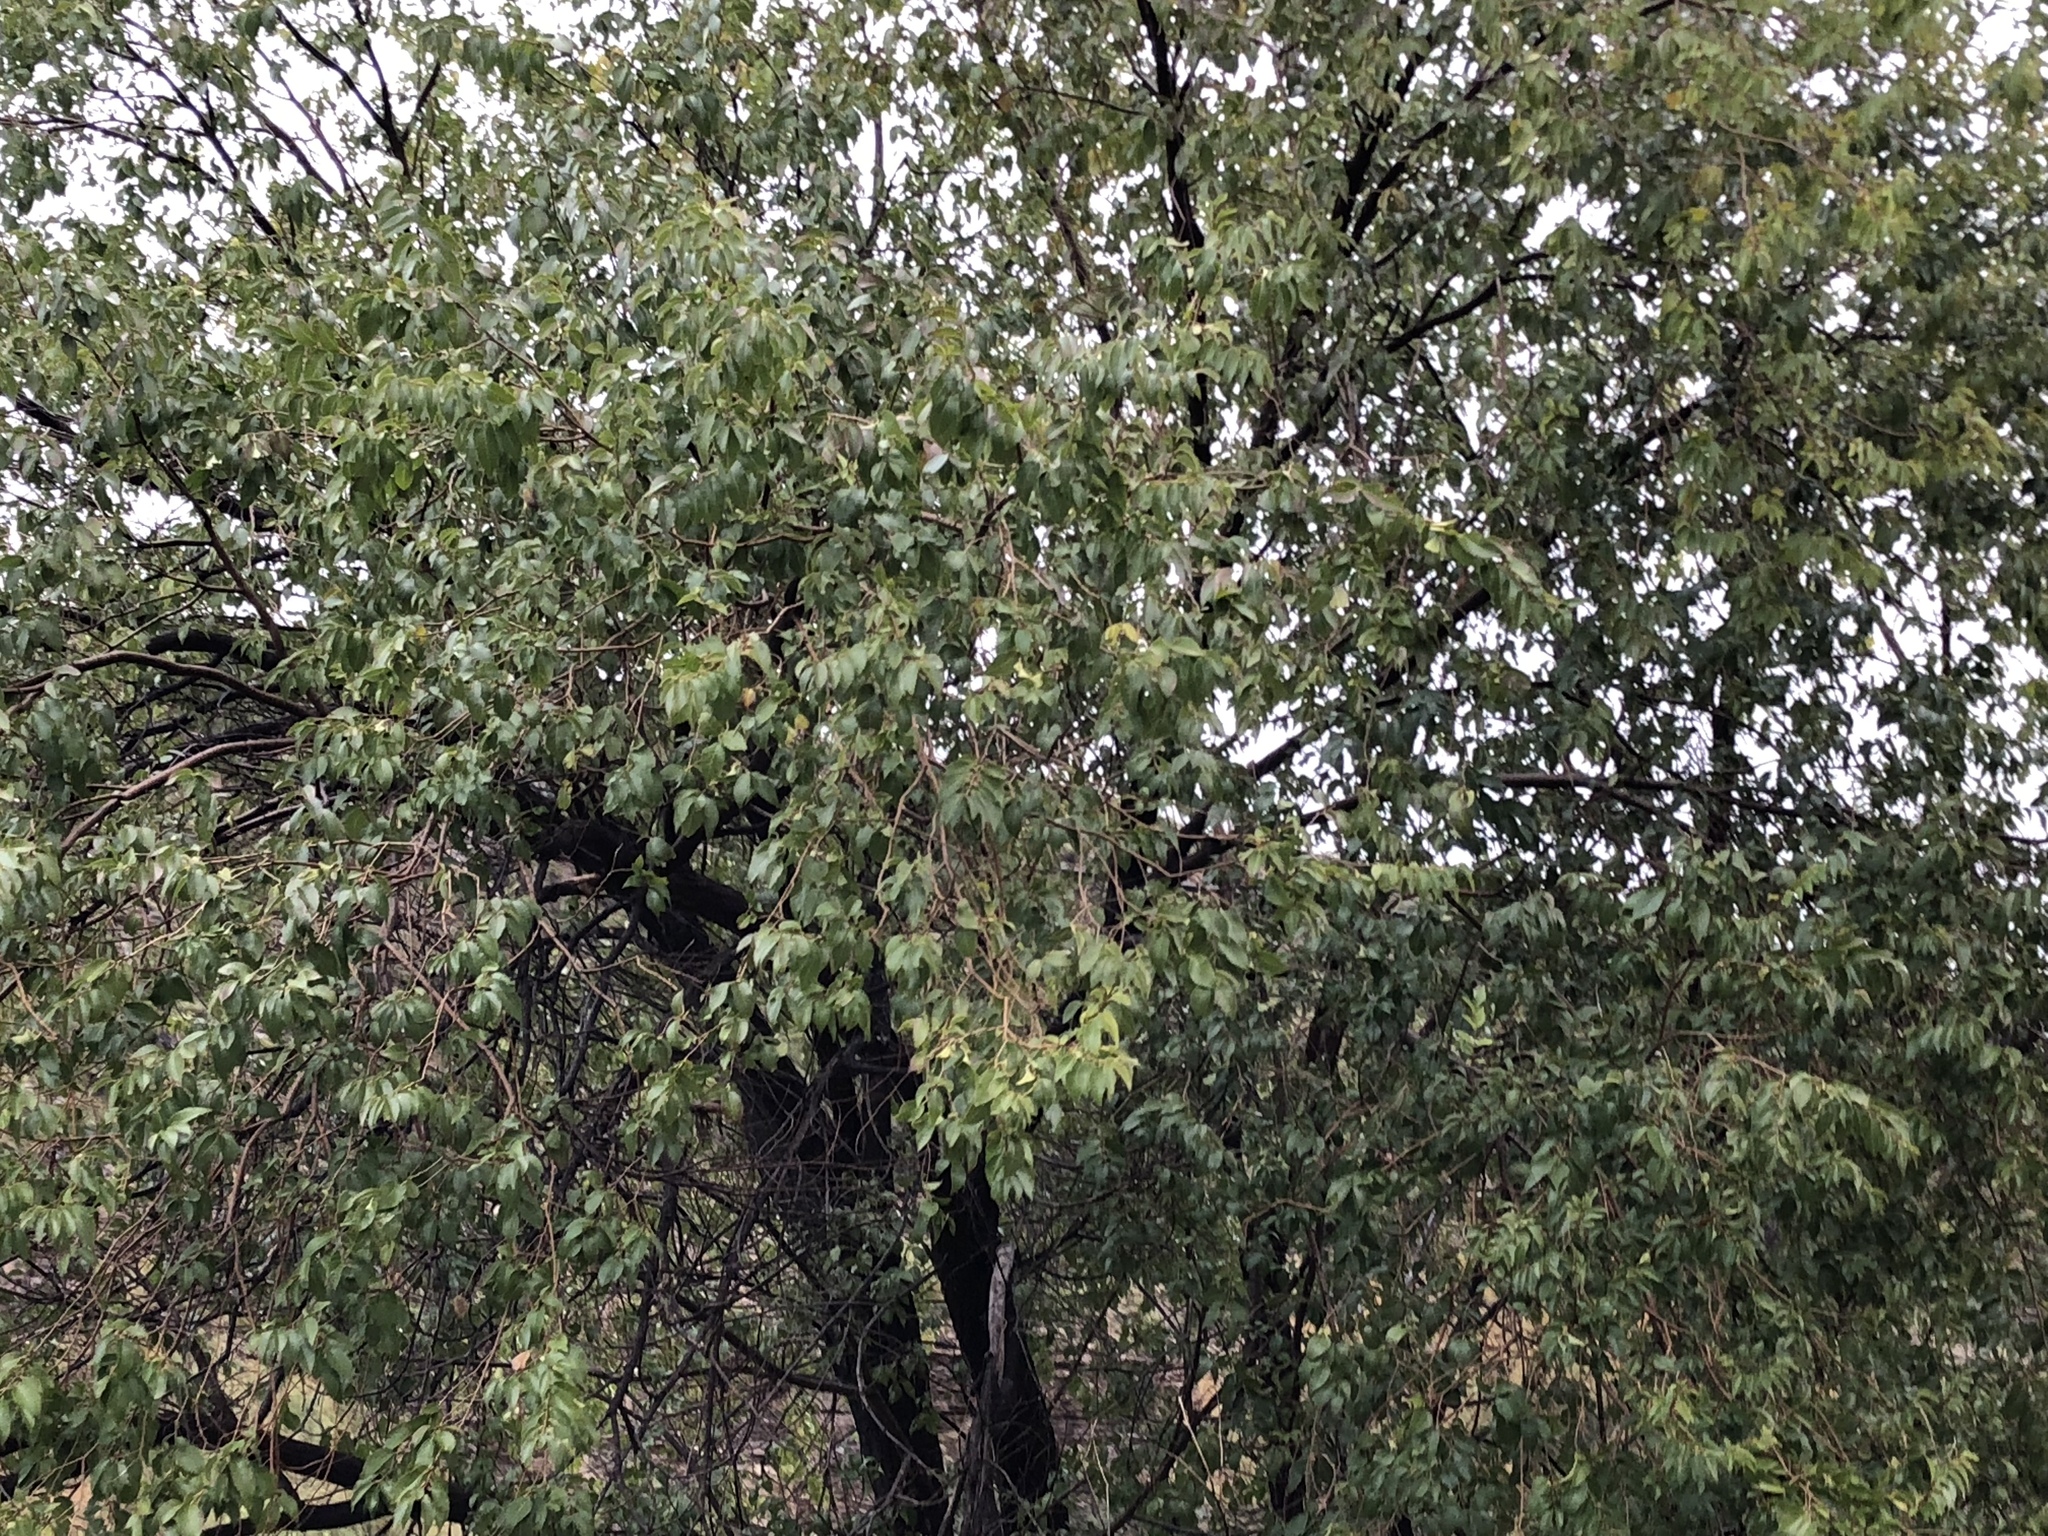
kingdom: Plantae
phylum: Tracheophyta
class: Magnoliopsida
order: Rosales
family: Ulmaceae
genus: Ulmus
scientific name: Ulmus pumila
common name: Siberian elm
